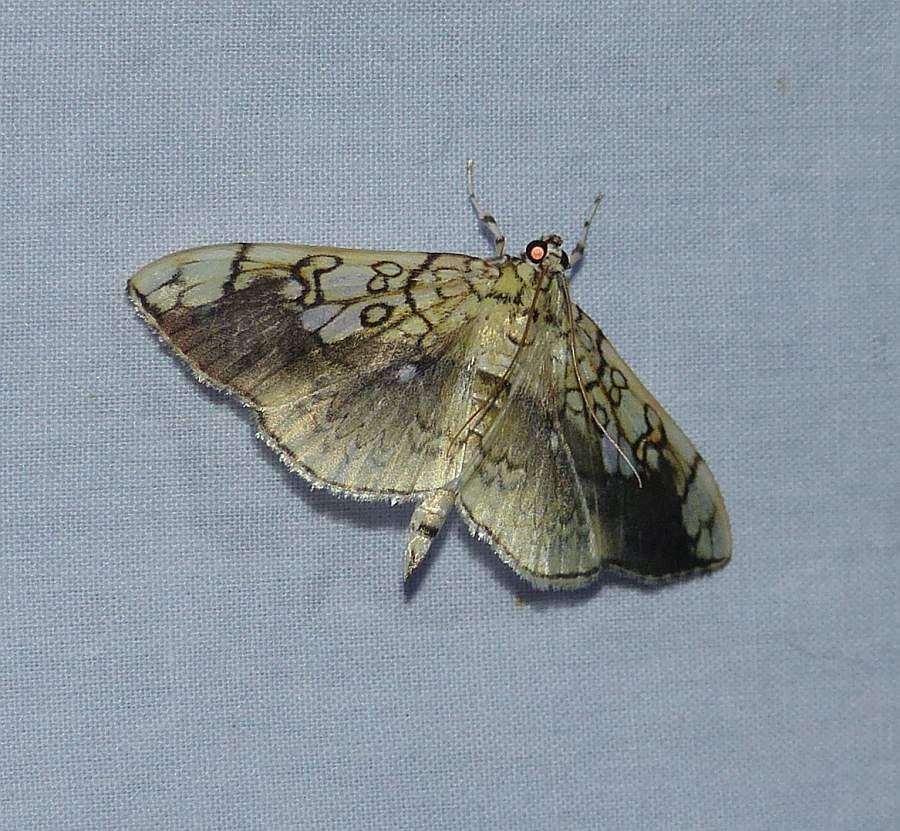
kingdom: Animalia
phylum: Arthropoda
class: Insecta
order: Lepidoptera
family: Crambidae
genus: Pantographa
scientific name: Pantographa limata
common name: Basswood leafroller moth
